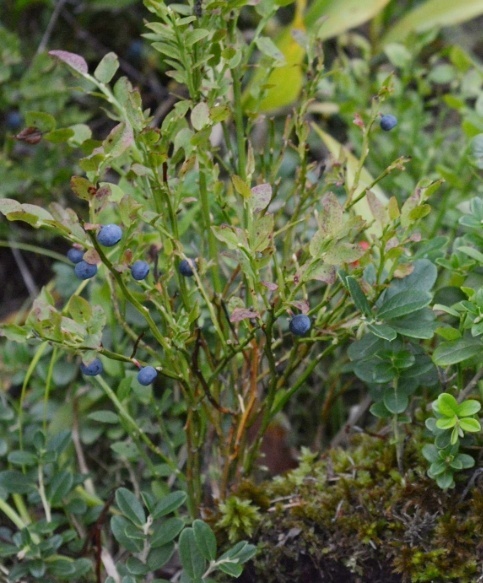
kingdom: Plantae
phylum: Tracheophyta
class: Magnoliopsida
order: Ericales
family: Ericaceae
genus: Vaccinium
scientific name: Vaccinium myrtillus
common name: Bilberry
